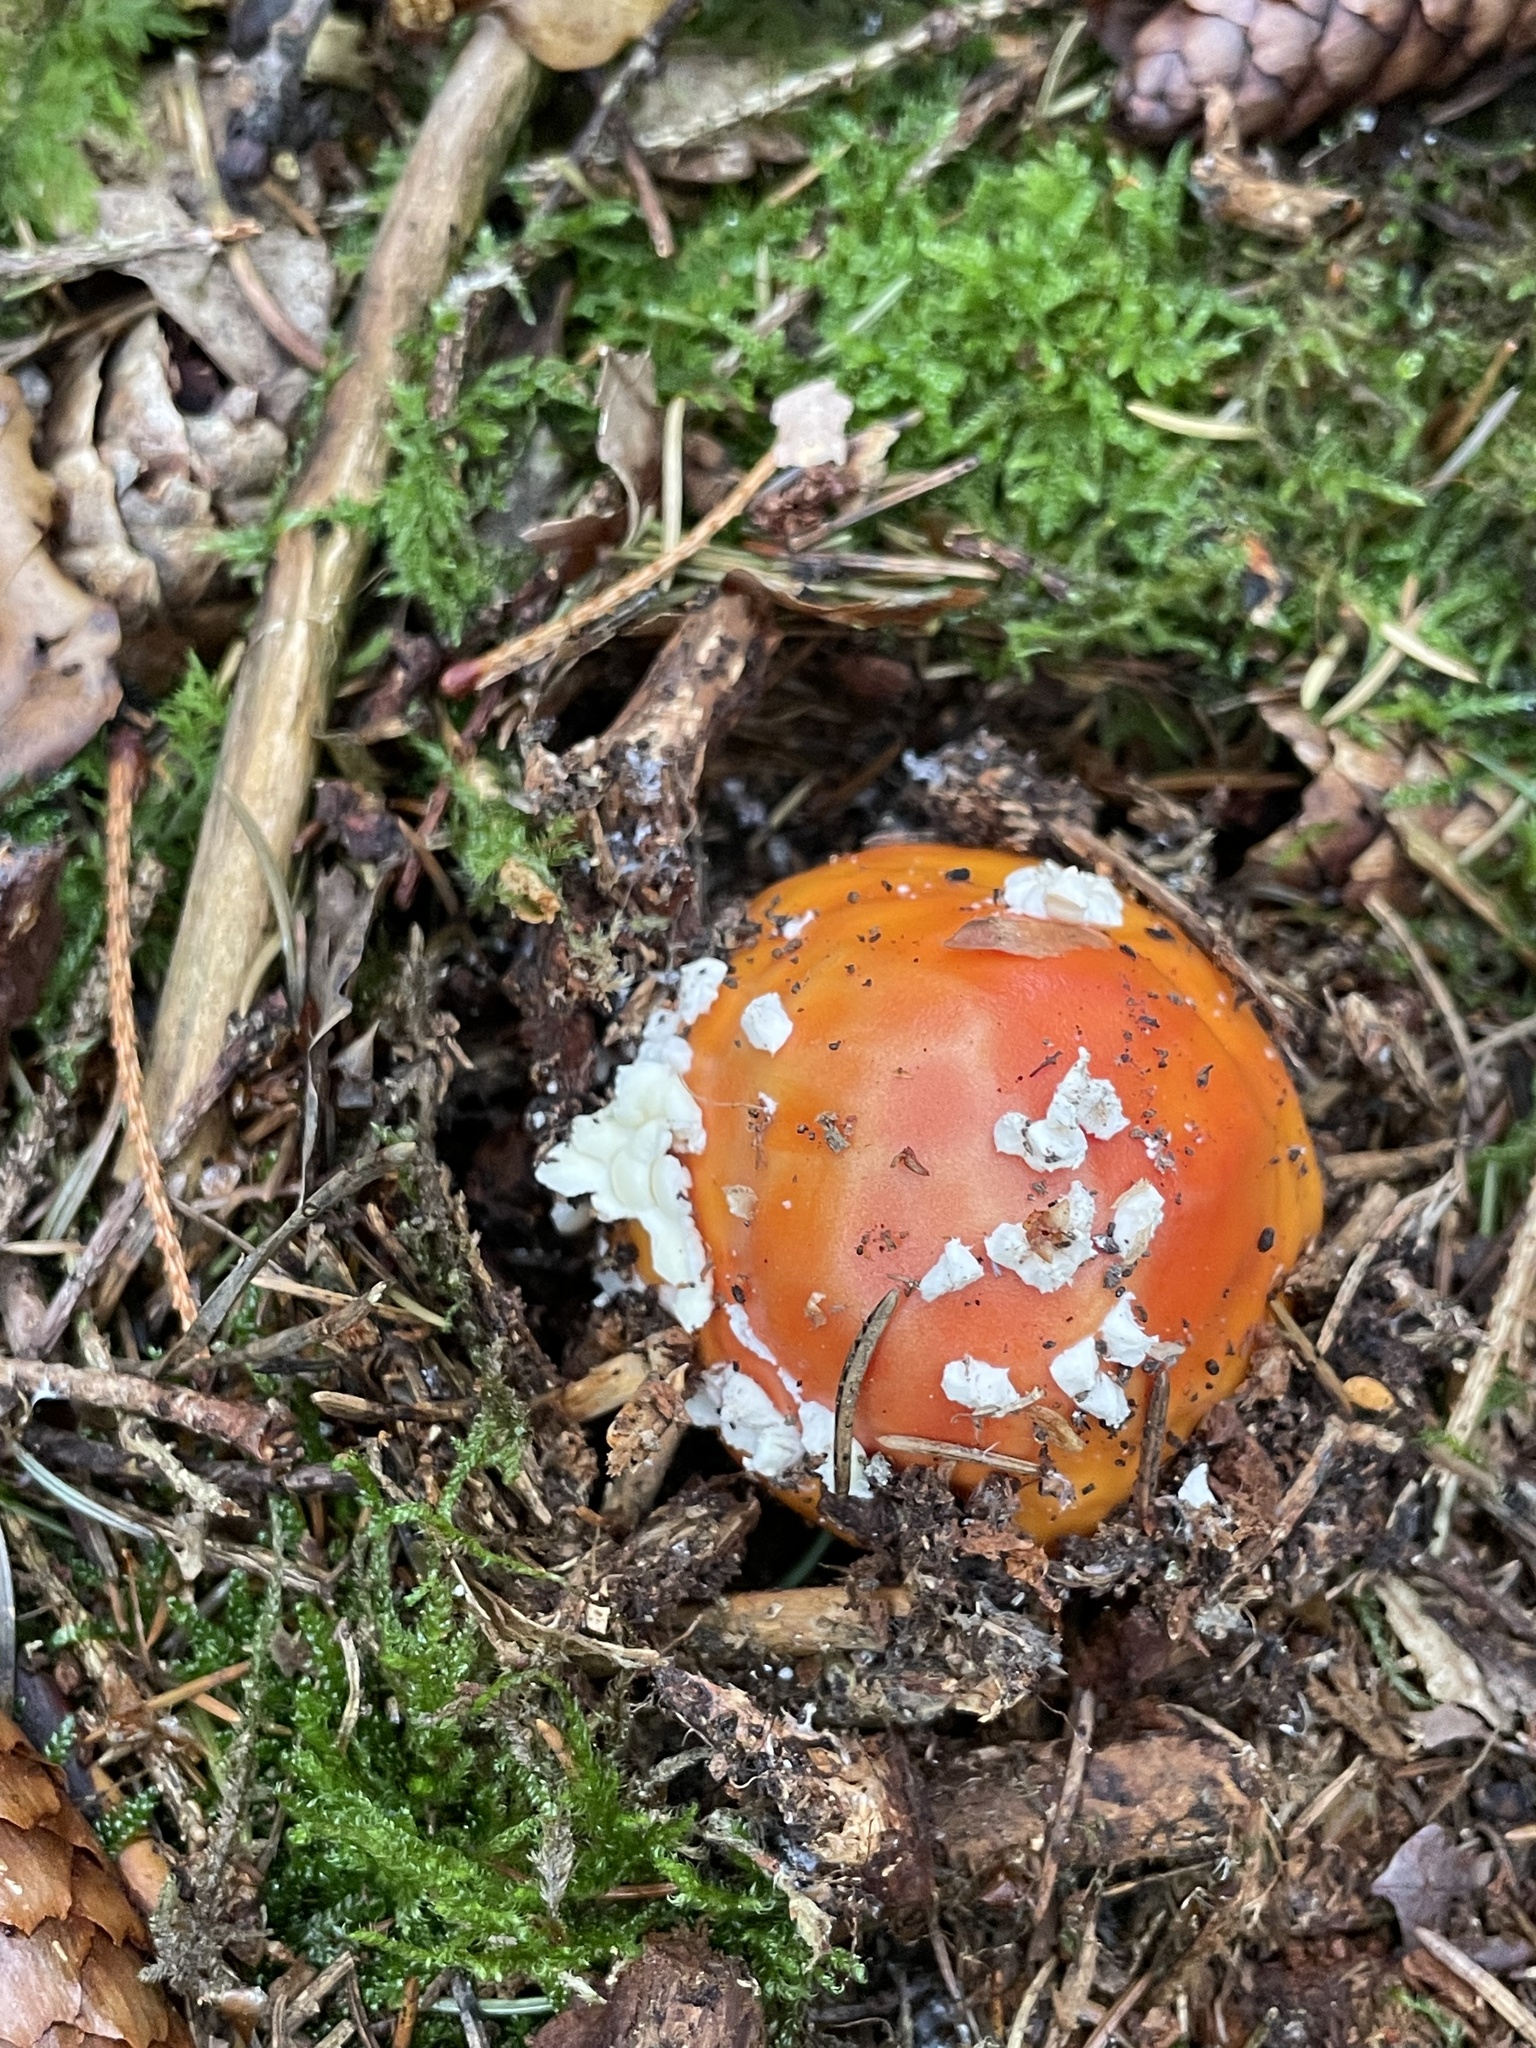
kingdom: Fungi
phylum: Basidiomycota
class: Agaricomycetes
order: Agaricales
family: Amanitaceae
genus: Amanita
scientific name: Amanita muscaria
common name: Fly agaric
